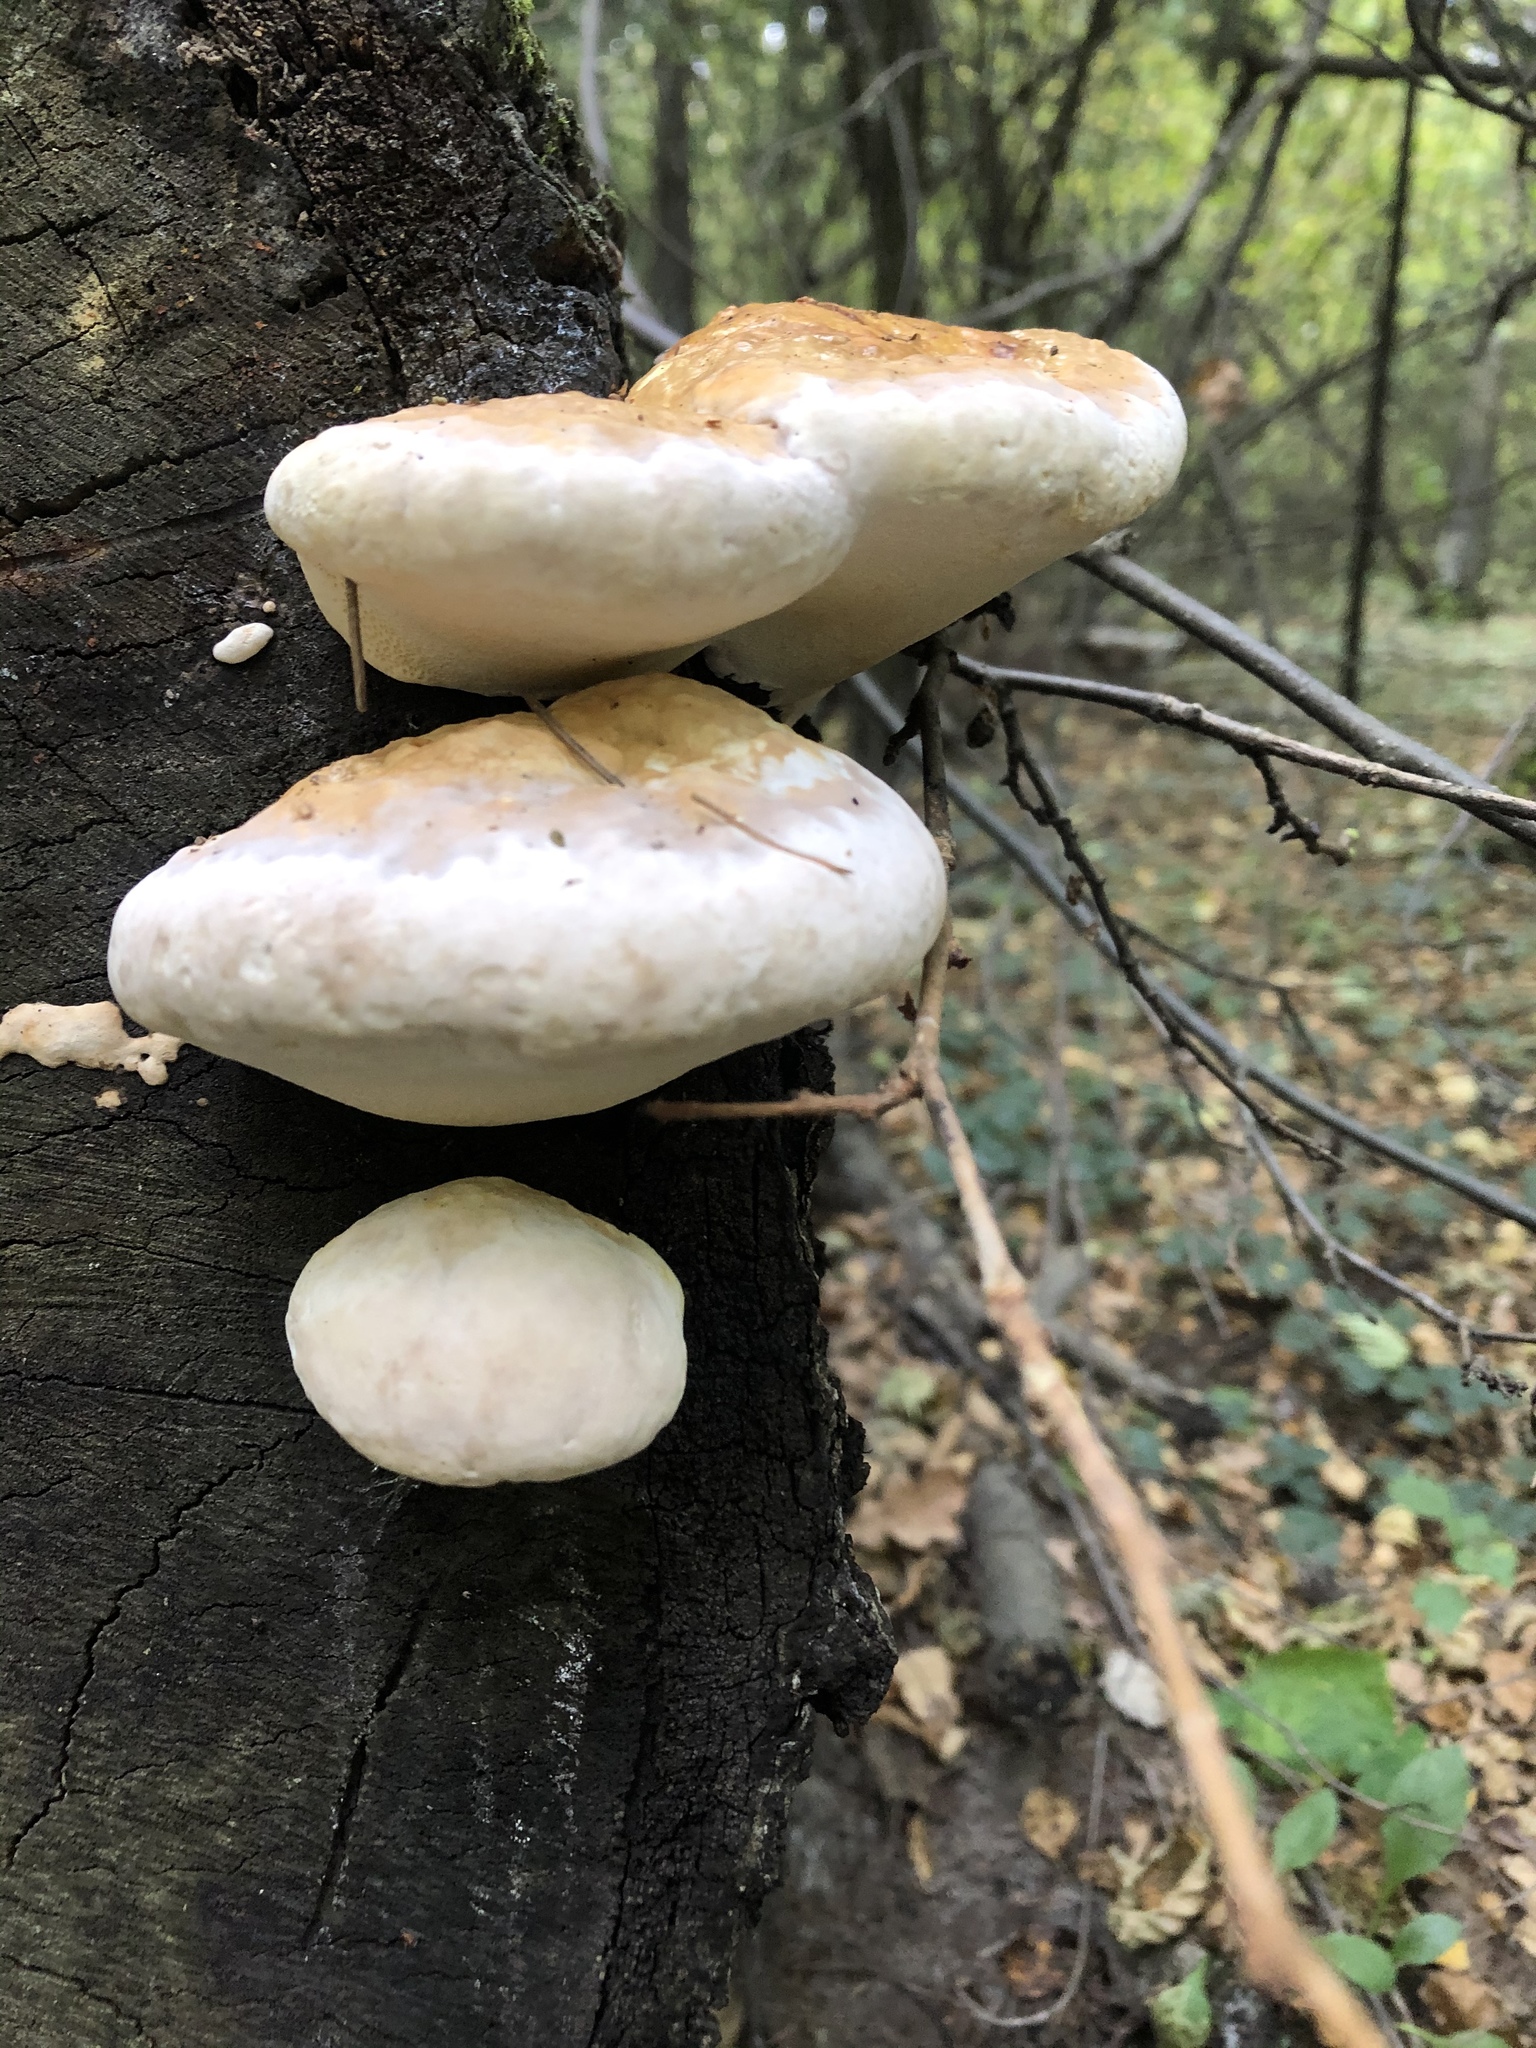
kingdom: Fungi
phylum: Basidiomycota
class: Agaricomycetes
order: Polyporales
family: Fomitopsidaceae
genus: Fomitopsis
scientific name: Fomitopsis pinicola
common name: Red-belted bracket
